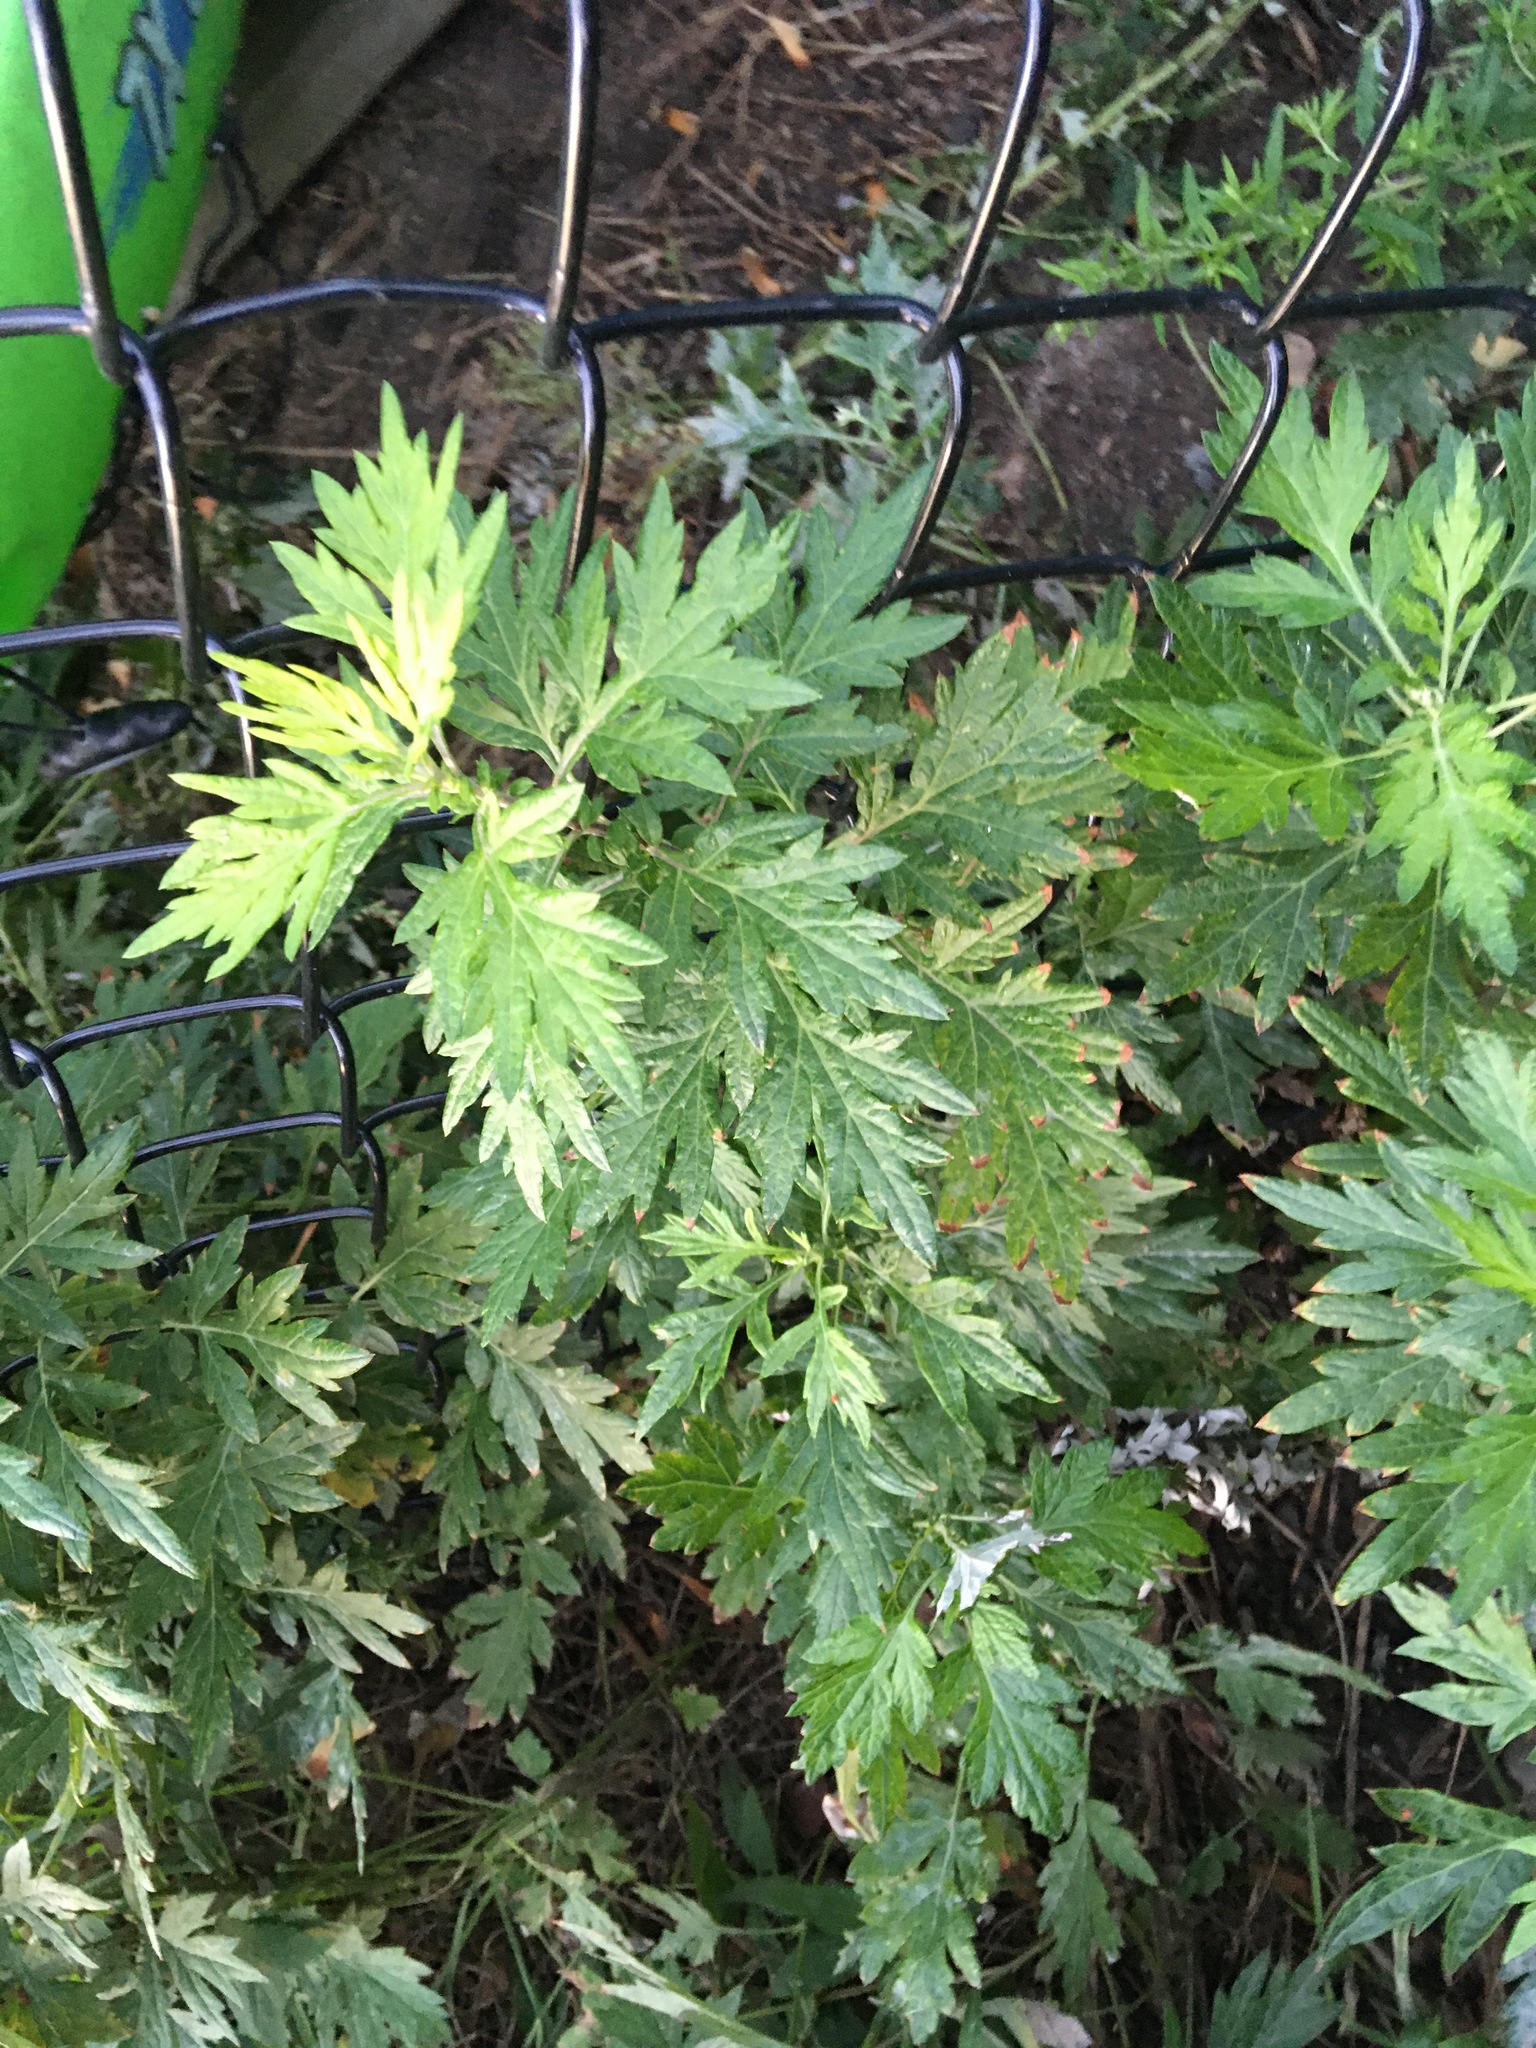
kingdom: Plantae
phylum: Tracheophyta
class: Magnoliopsida
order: Asterales
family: Asteraceae
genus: Artemisia
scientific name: Artemisia vulgaris
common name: Mugwort
